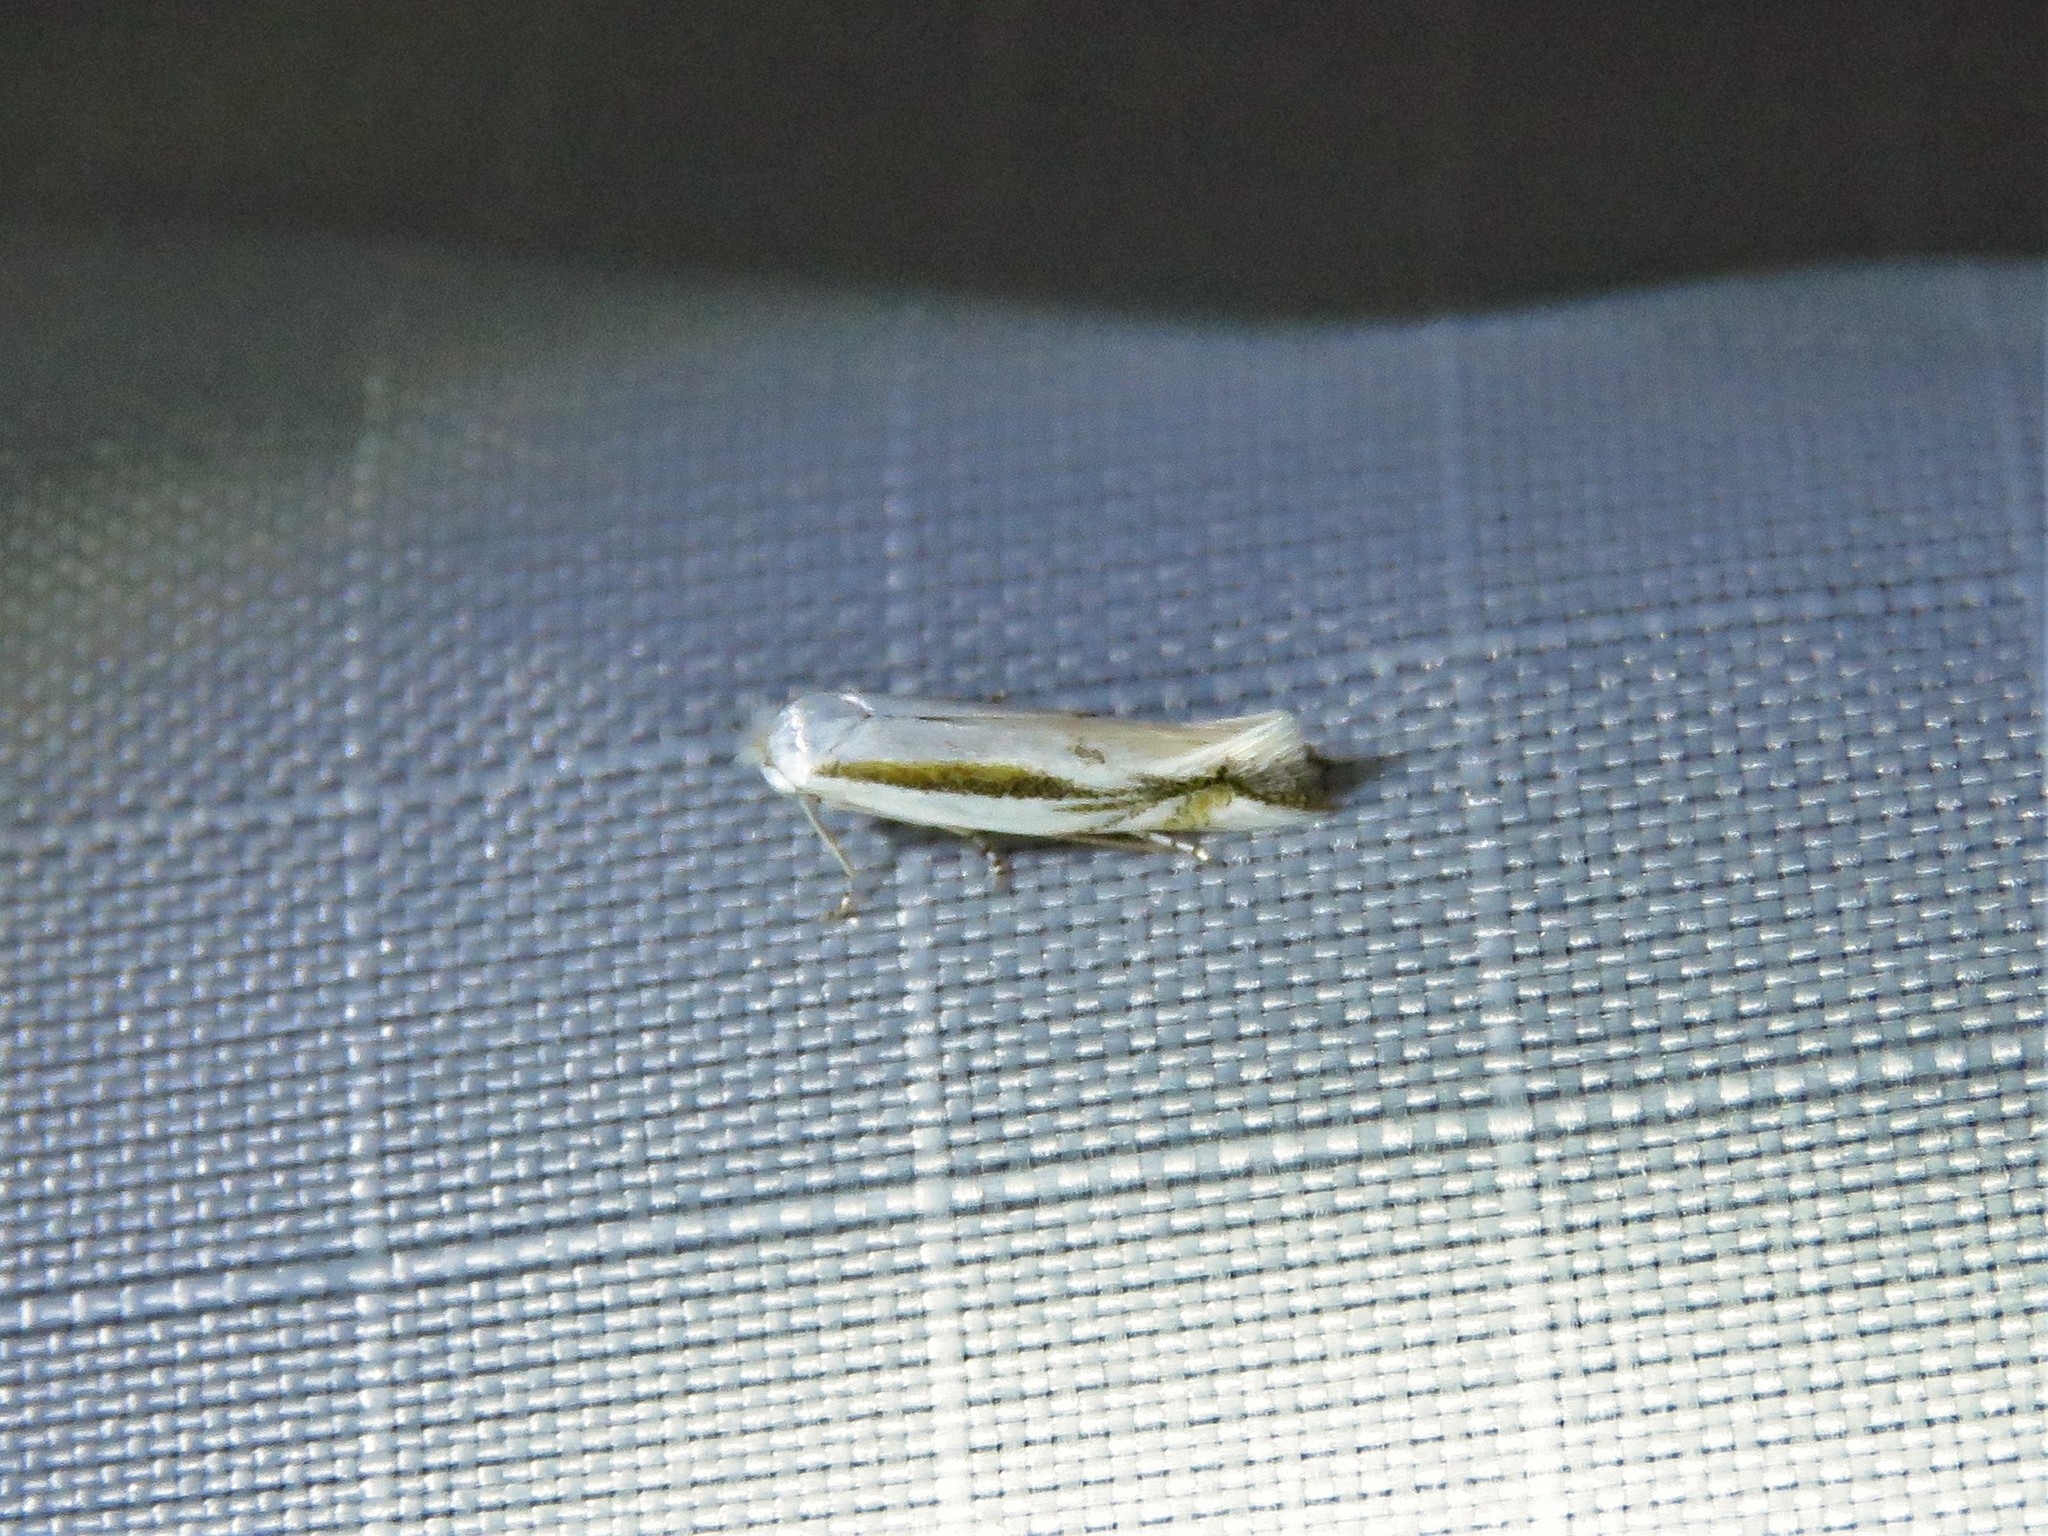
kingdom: Animalia
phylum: Arthropoda
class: Insecta
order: Lepidoptera
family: Bucculatricidae
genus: Bucculatrix
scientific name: Bucculatrix magnella
